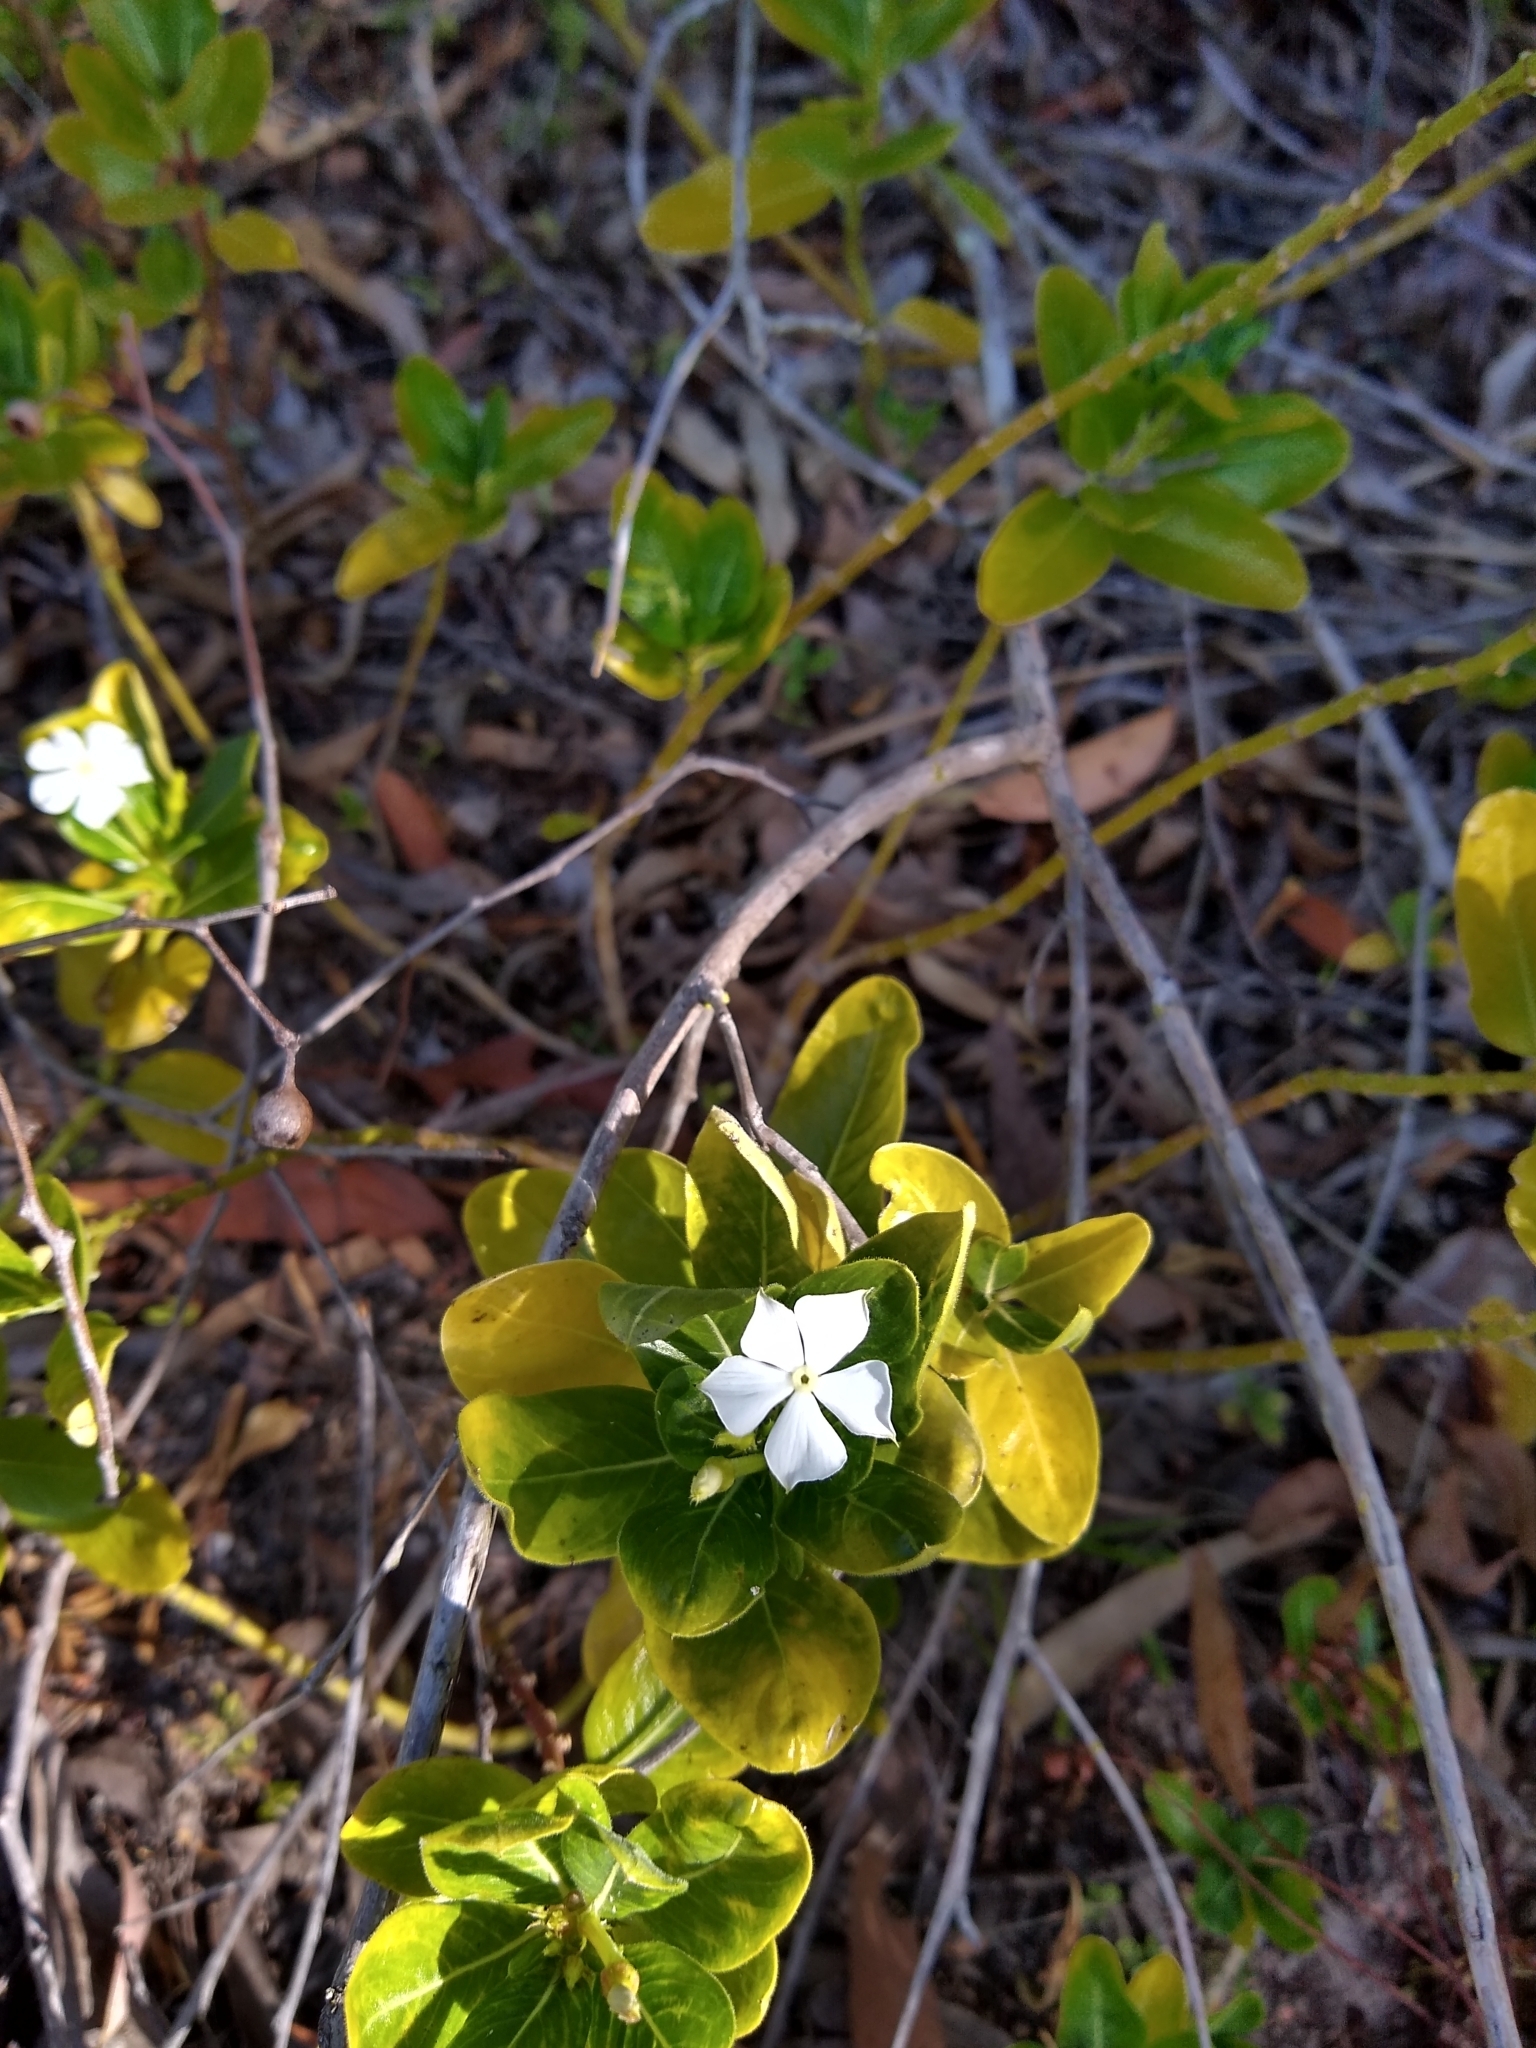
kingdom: Plantae
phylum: Tracheophyta
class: Magnoliopsida
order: Gentianales
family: Apocynaceae
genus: Catharanthus
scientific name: Catharanthus roseus
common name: Madagascar periwinkle
